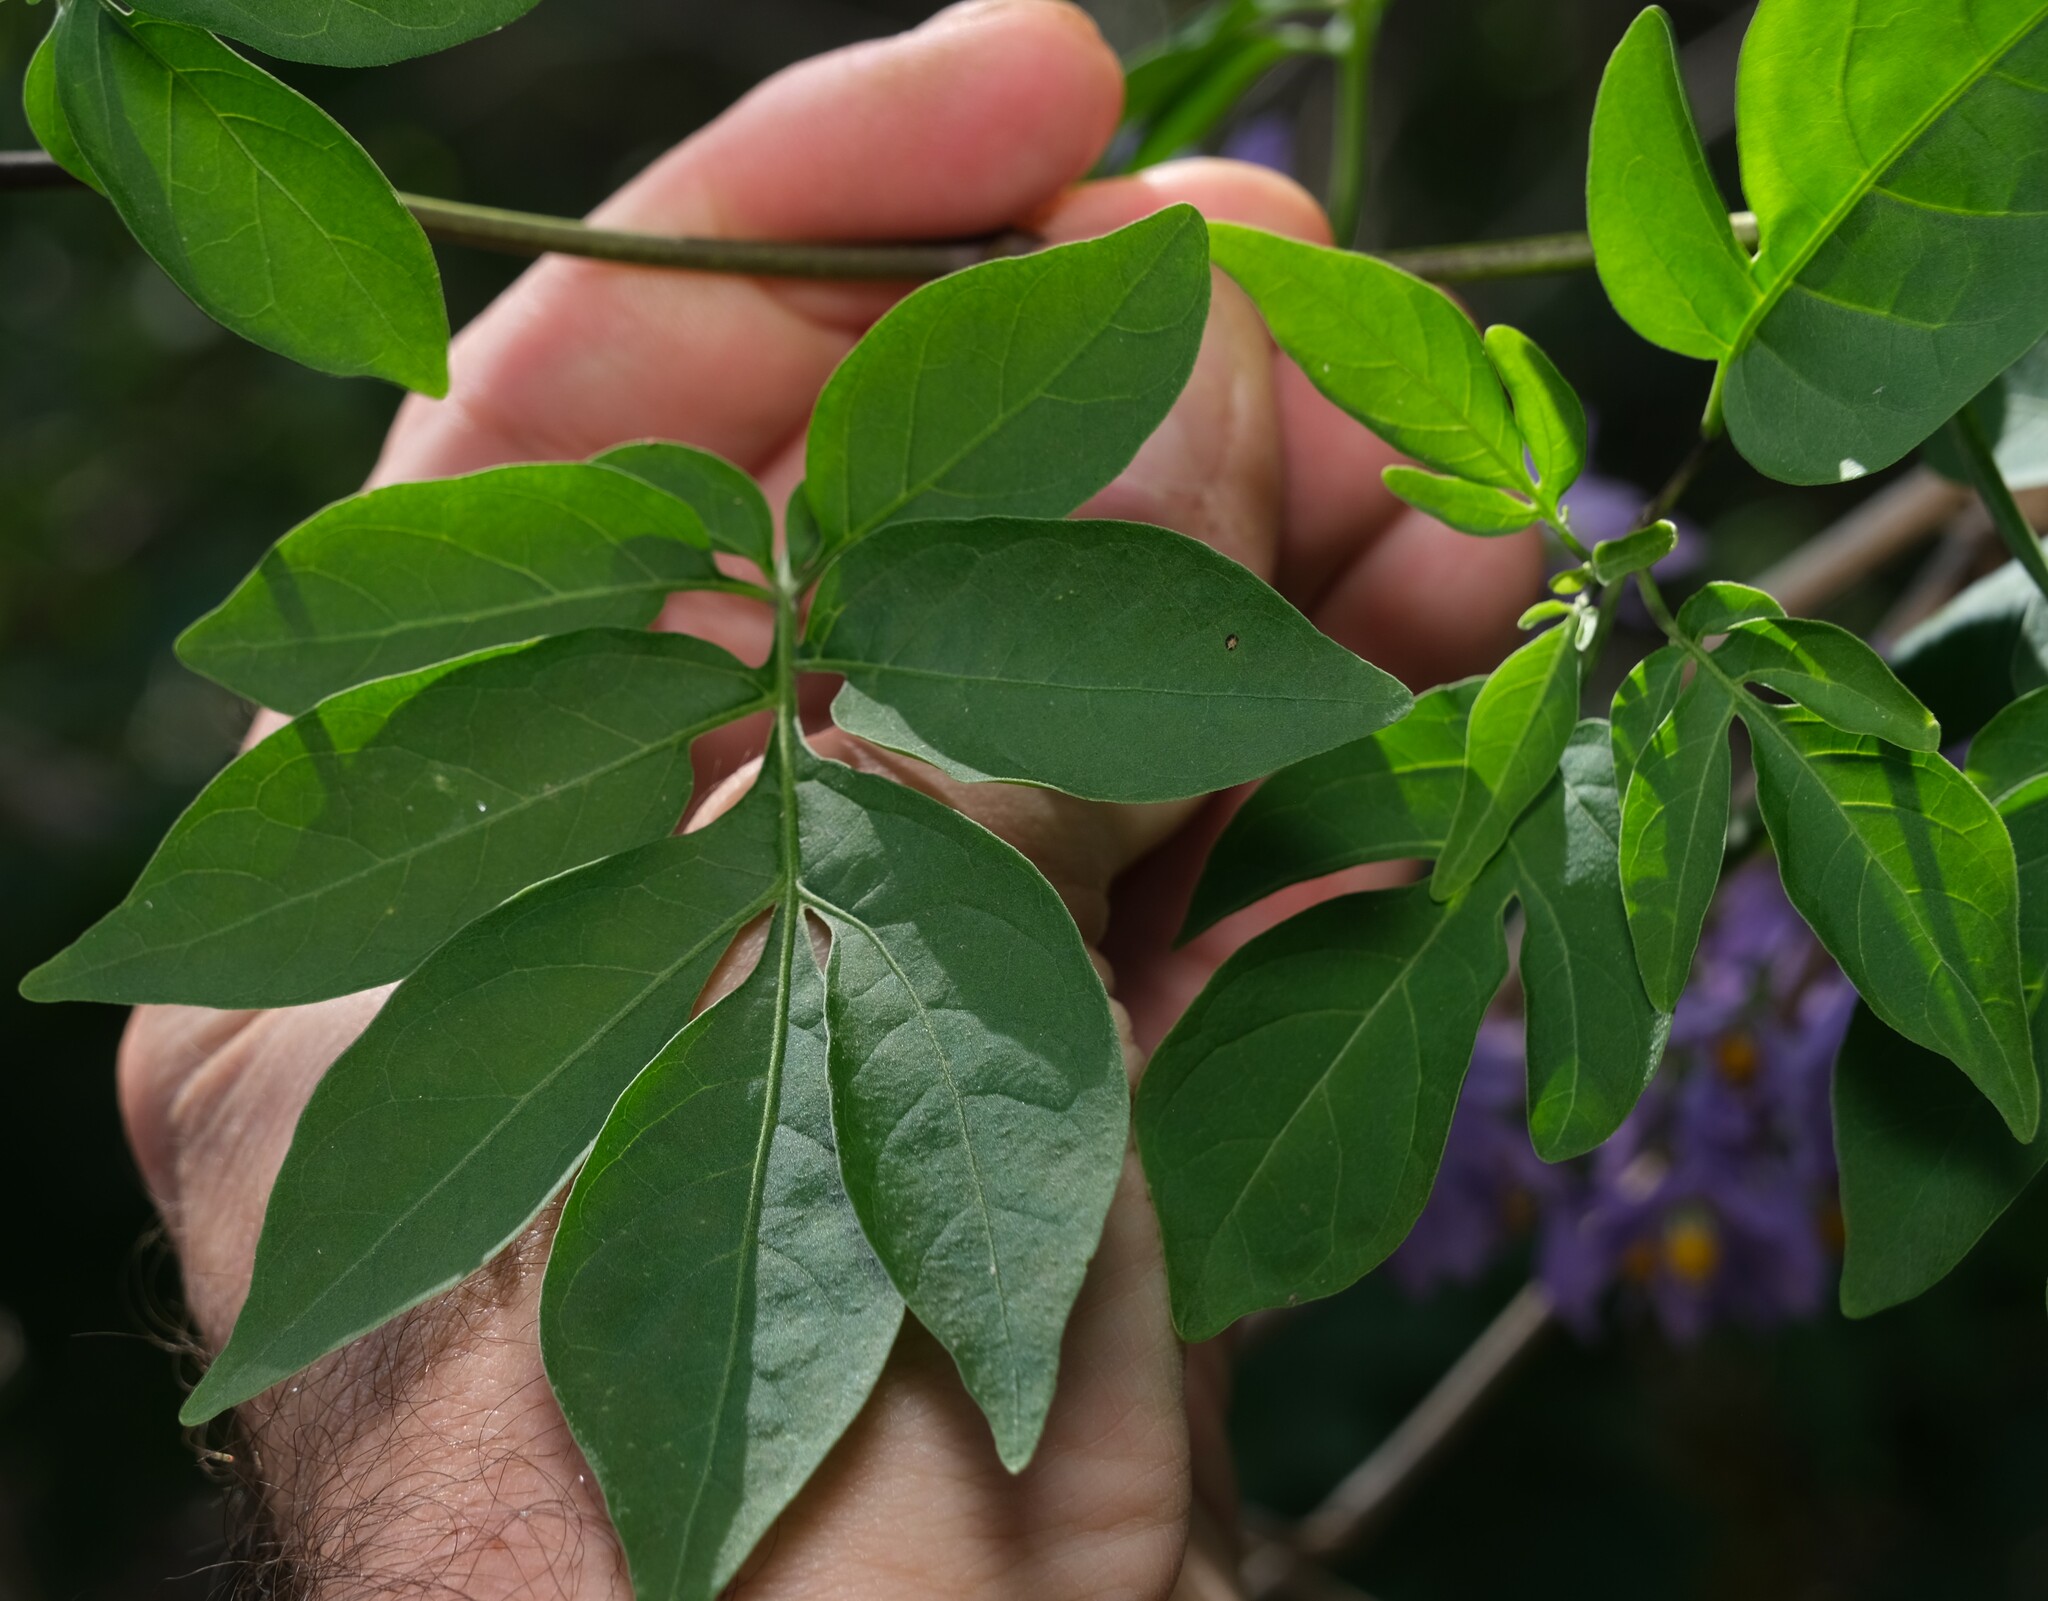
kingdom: Plantae
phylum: Tracheophyta
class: Magnoliopsida
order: Solanales
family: Solanaceae
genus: Solanum
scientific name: Solanum seaforthianum
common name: Brazilian nightshade
